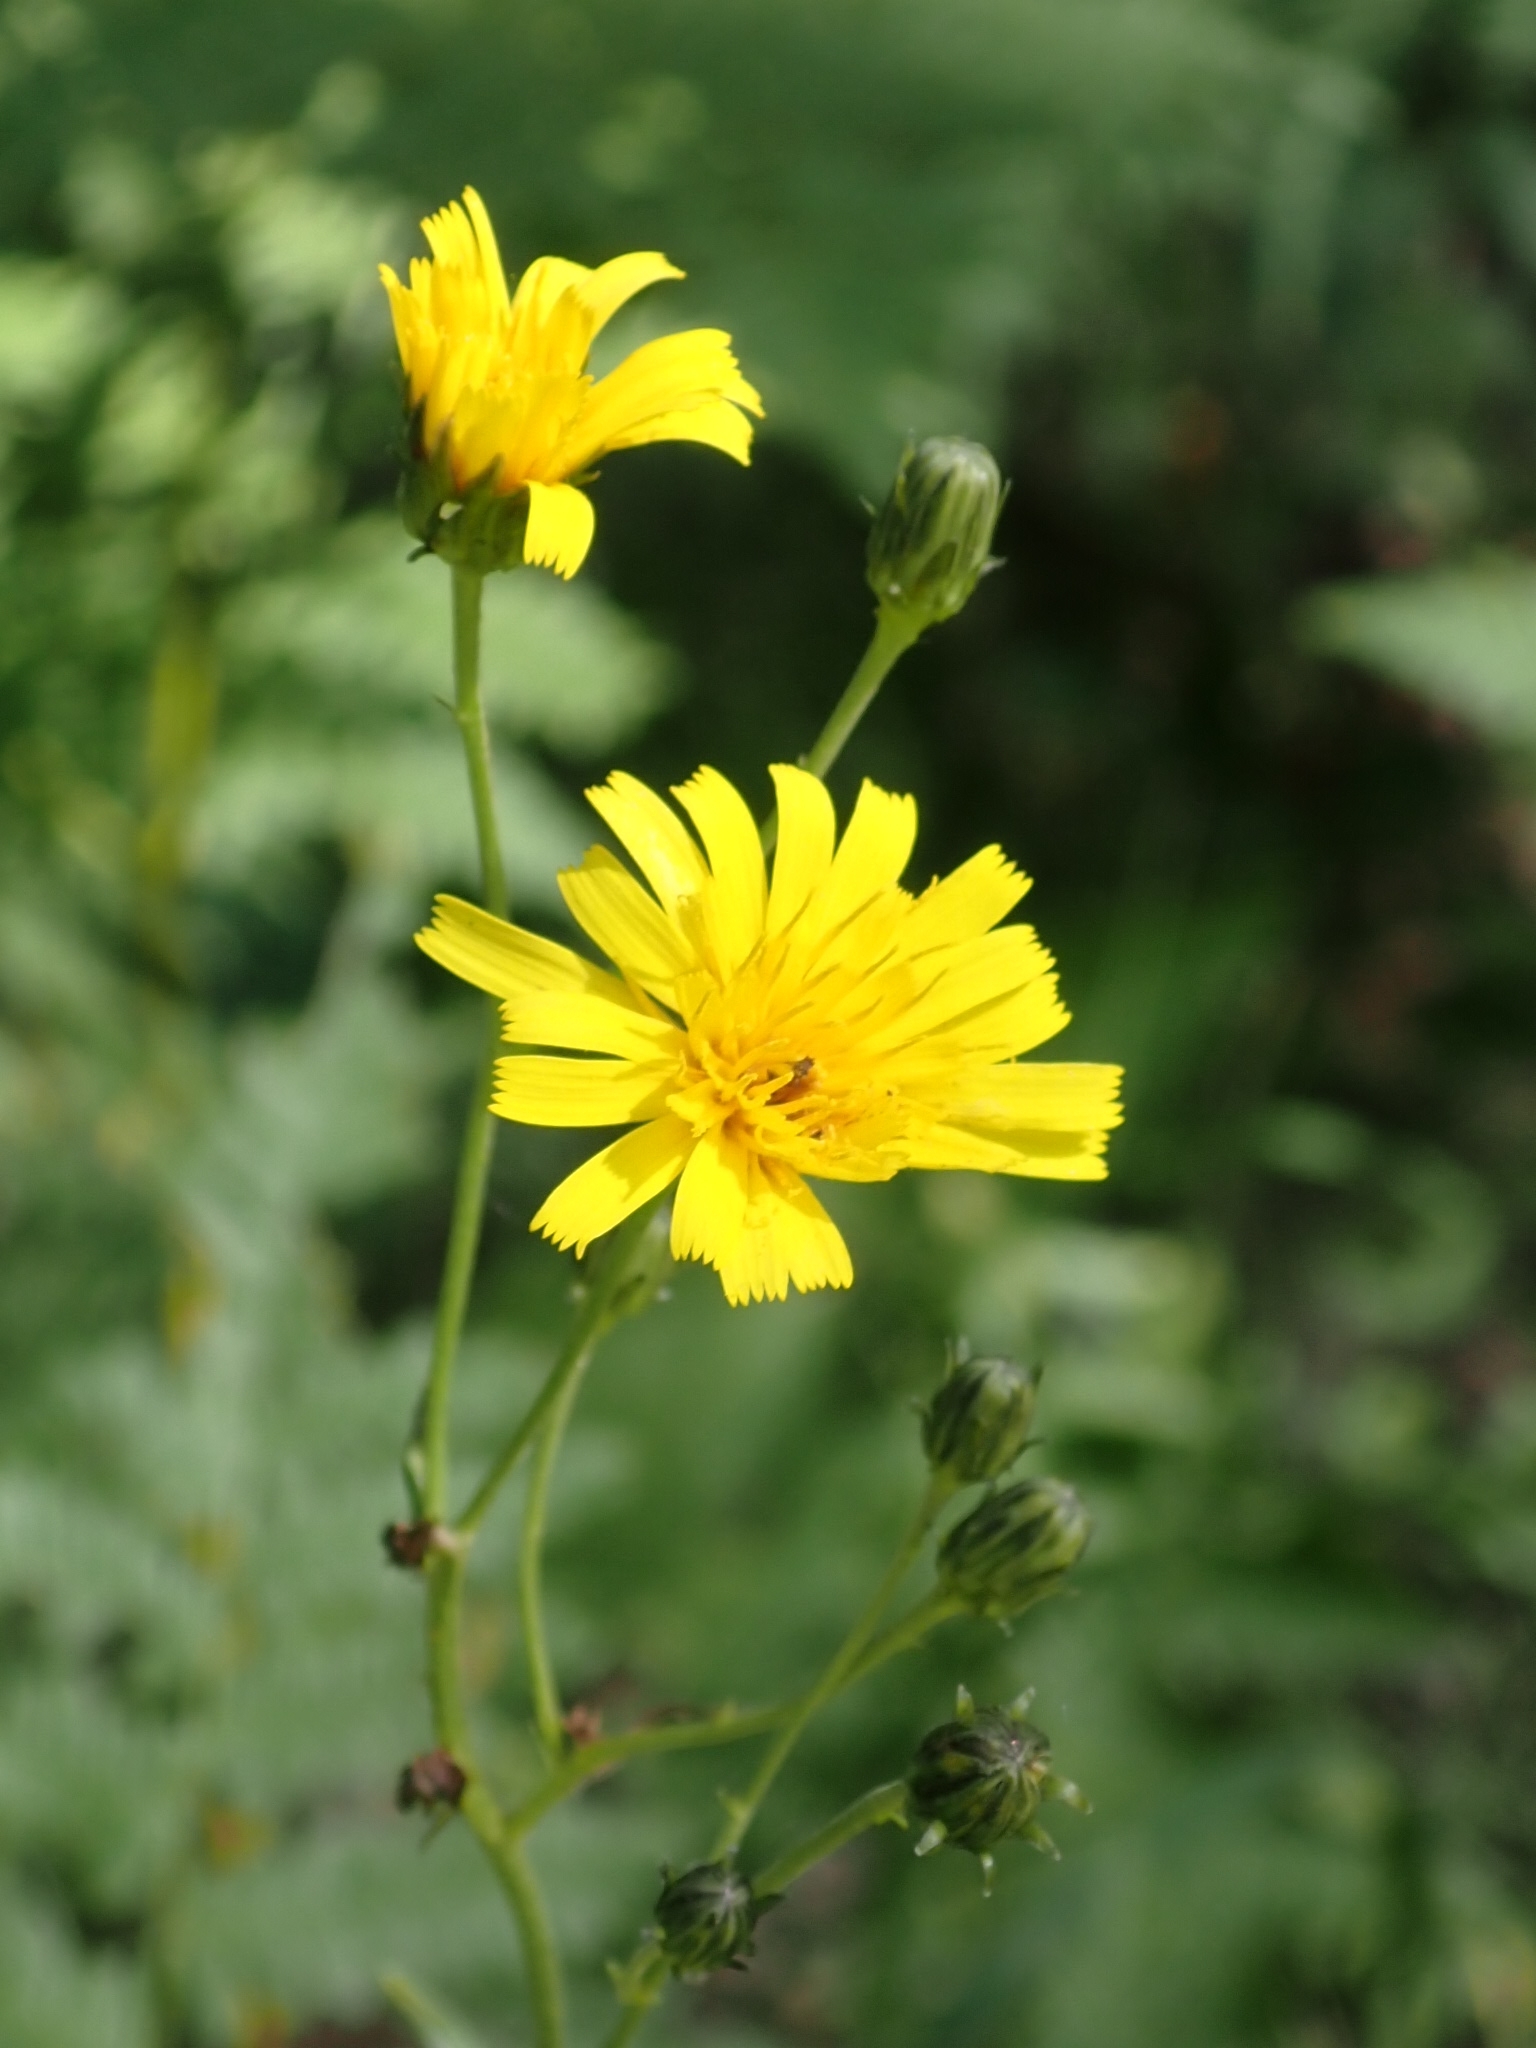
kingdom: Plantae
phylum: Tracheophyta
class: Magnoliopsida
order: Asterales
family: Asteraceae
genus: Hieracium
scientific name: Hieracium umbellatum
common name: Northern hawkweed
